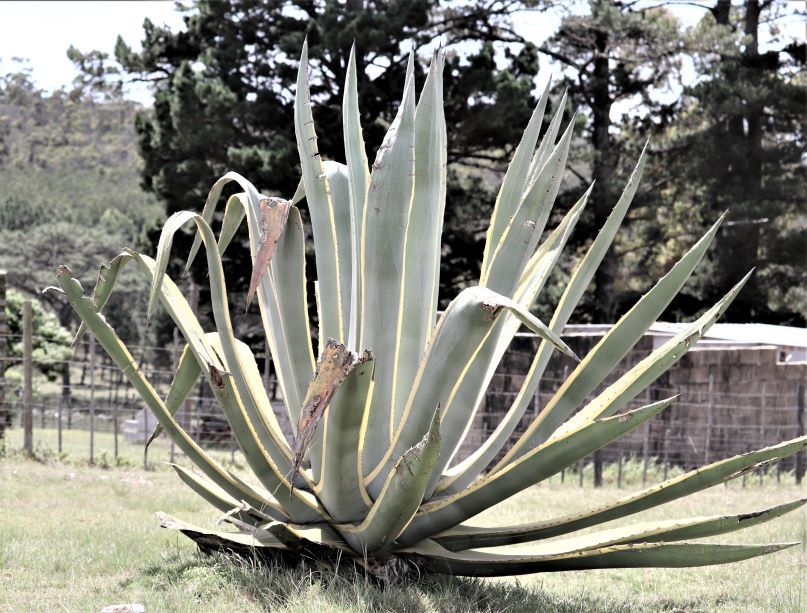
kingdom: Plantae
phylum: Tracheophyta
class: Liliopsida
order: Asparagales
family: Asparagaceae
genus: Agave
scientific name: Agave americana
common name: Centuryplant
